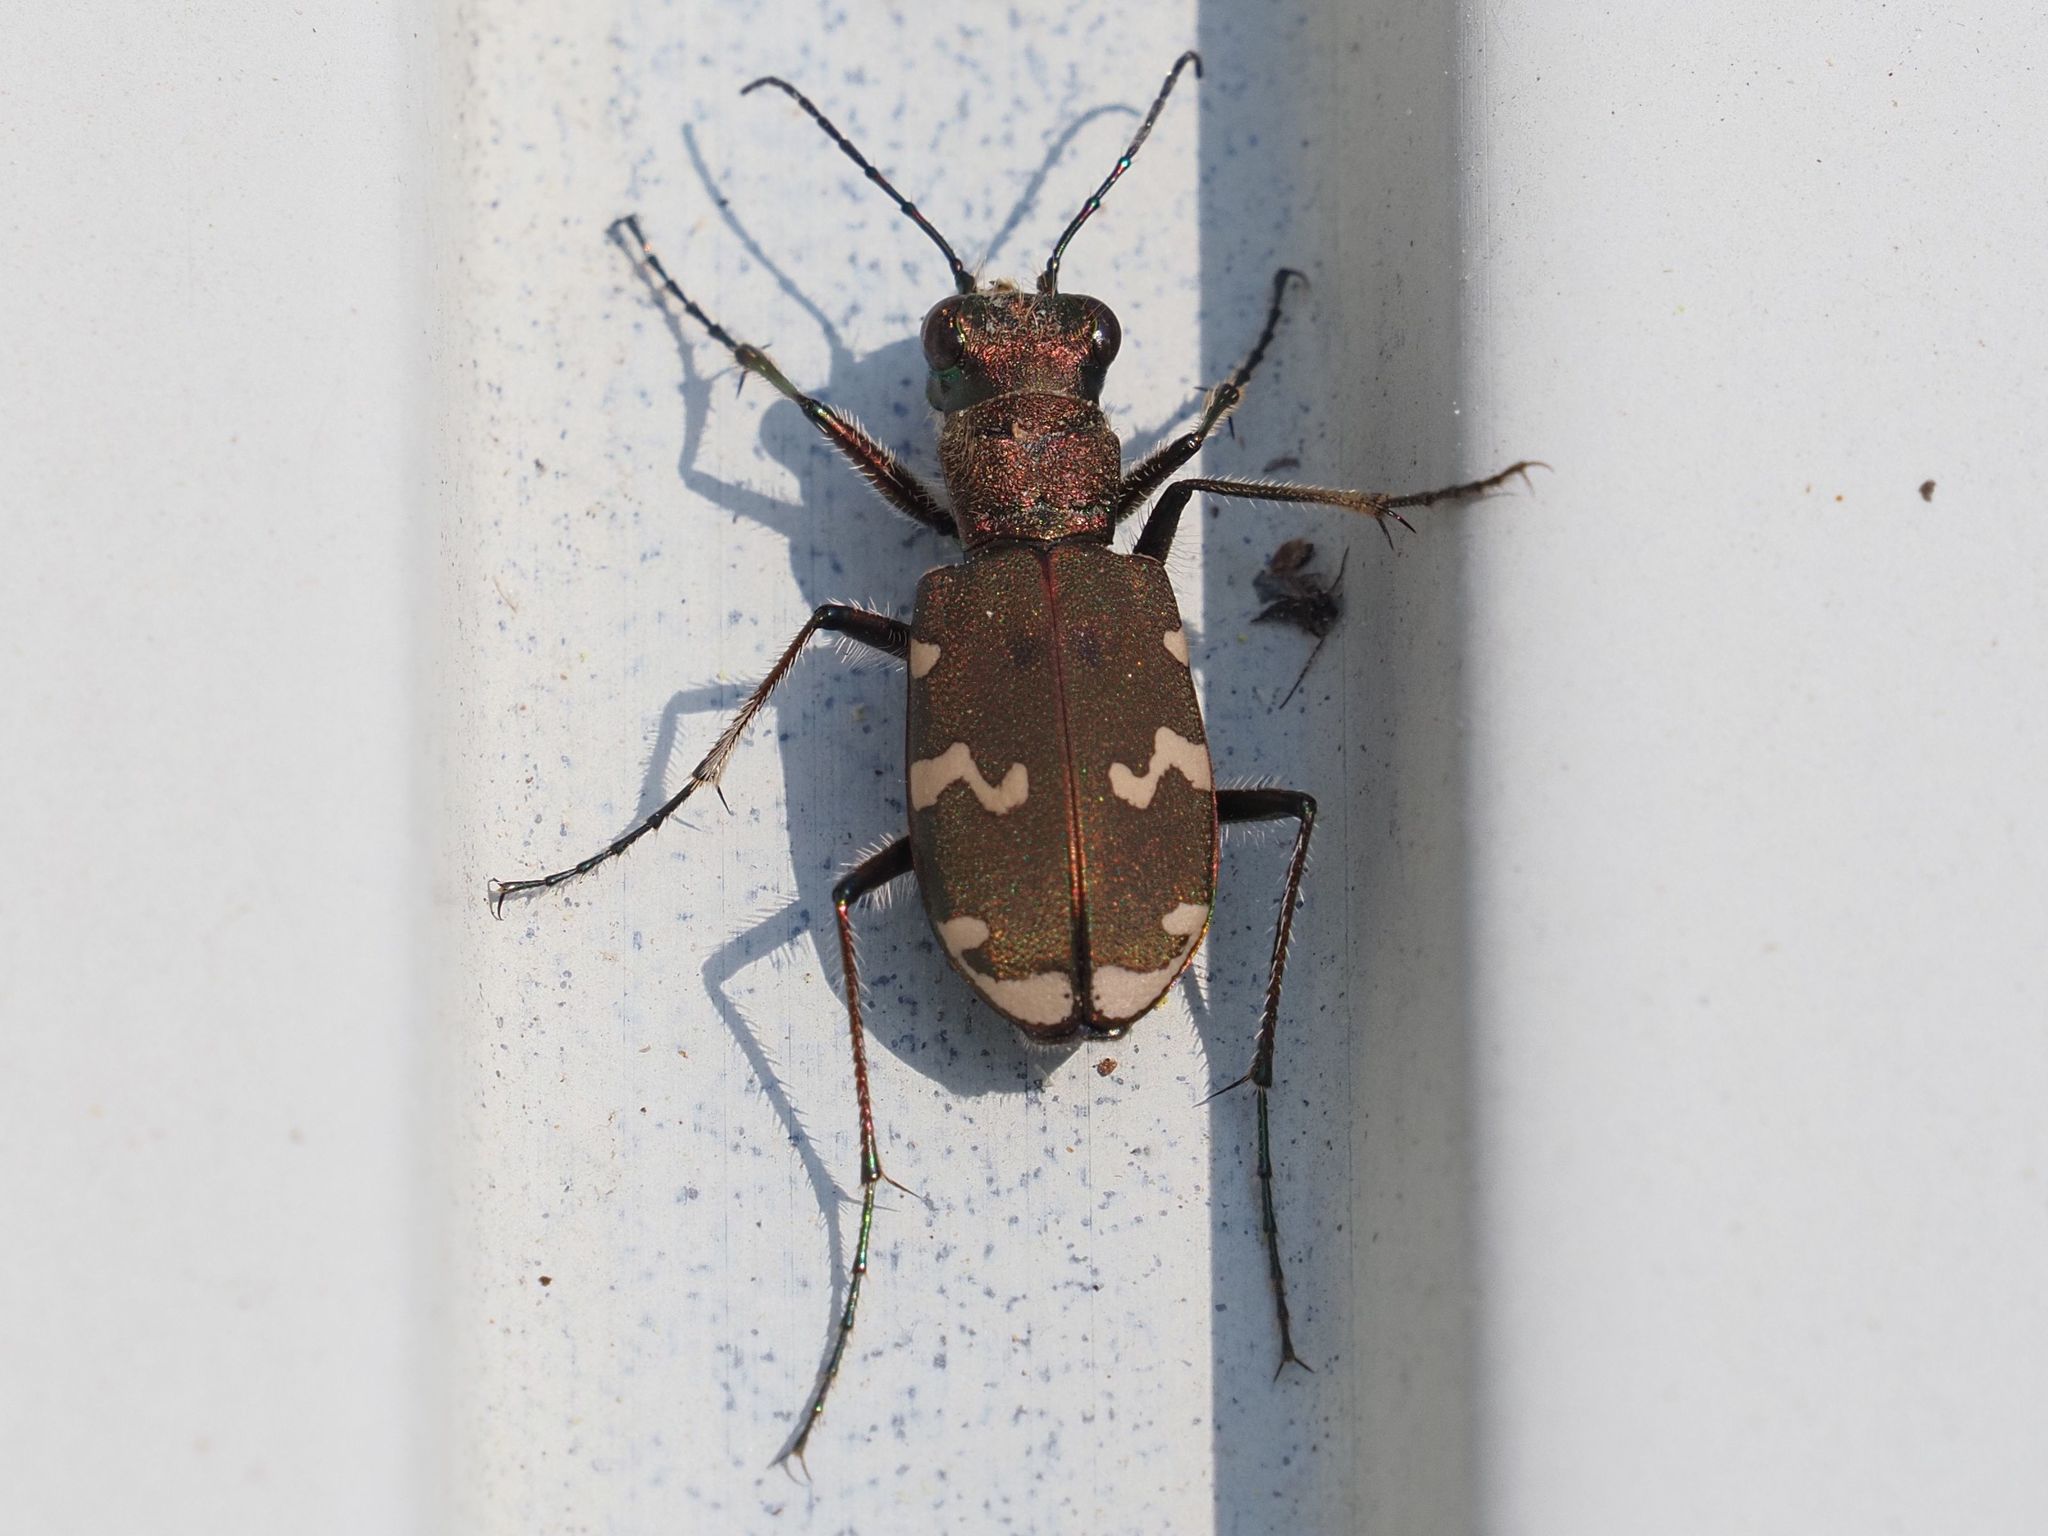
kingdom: Animalia
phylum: Arthropoda
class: Insecta
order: Coleoptera
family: Carabidae
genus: Cicindela
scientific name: Cicindela sylvicola
